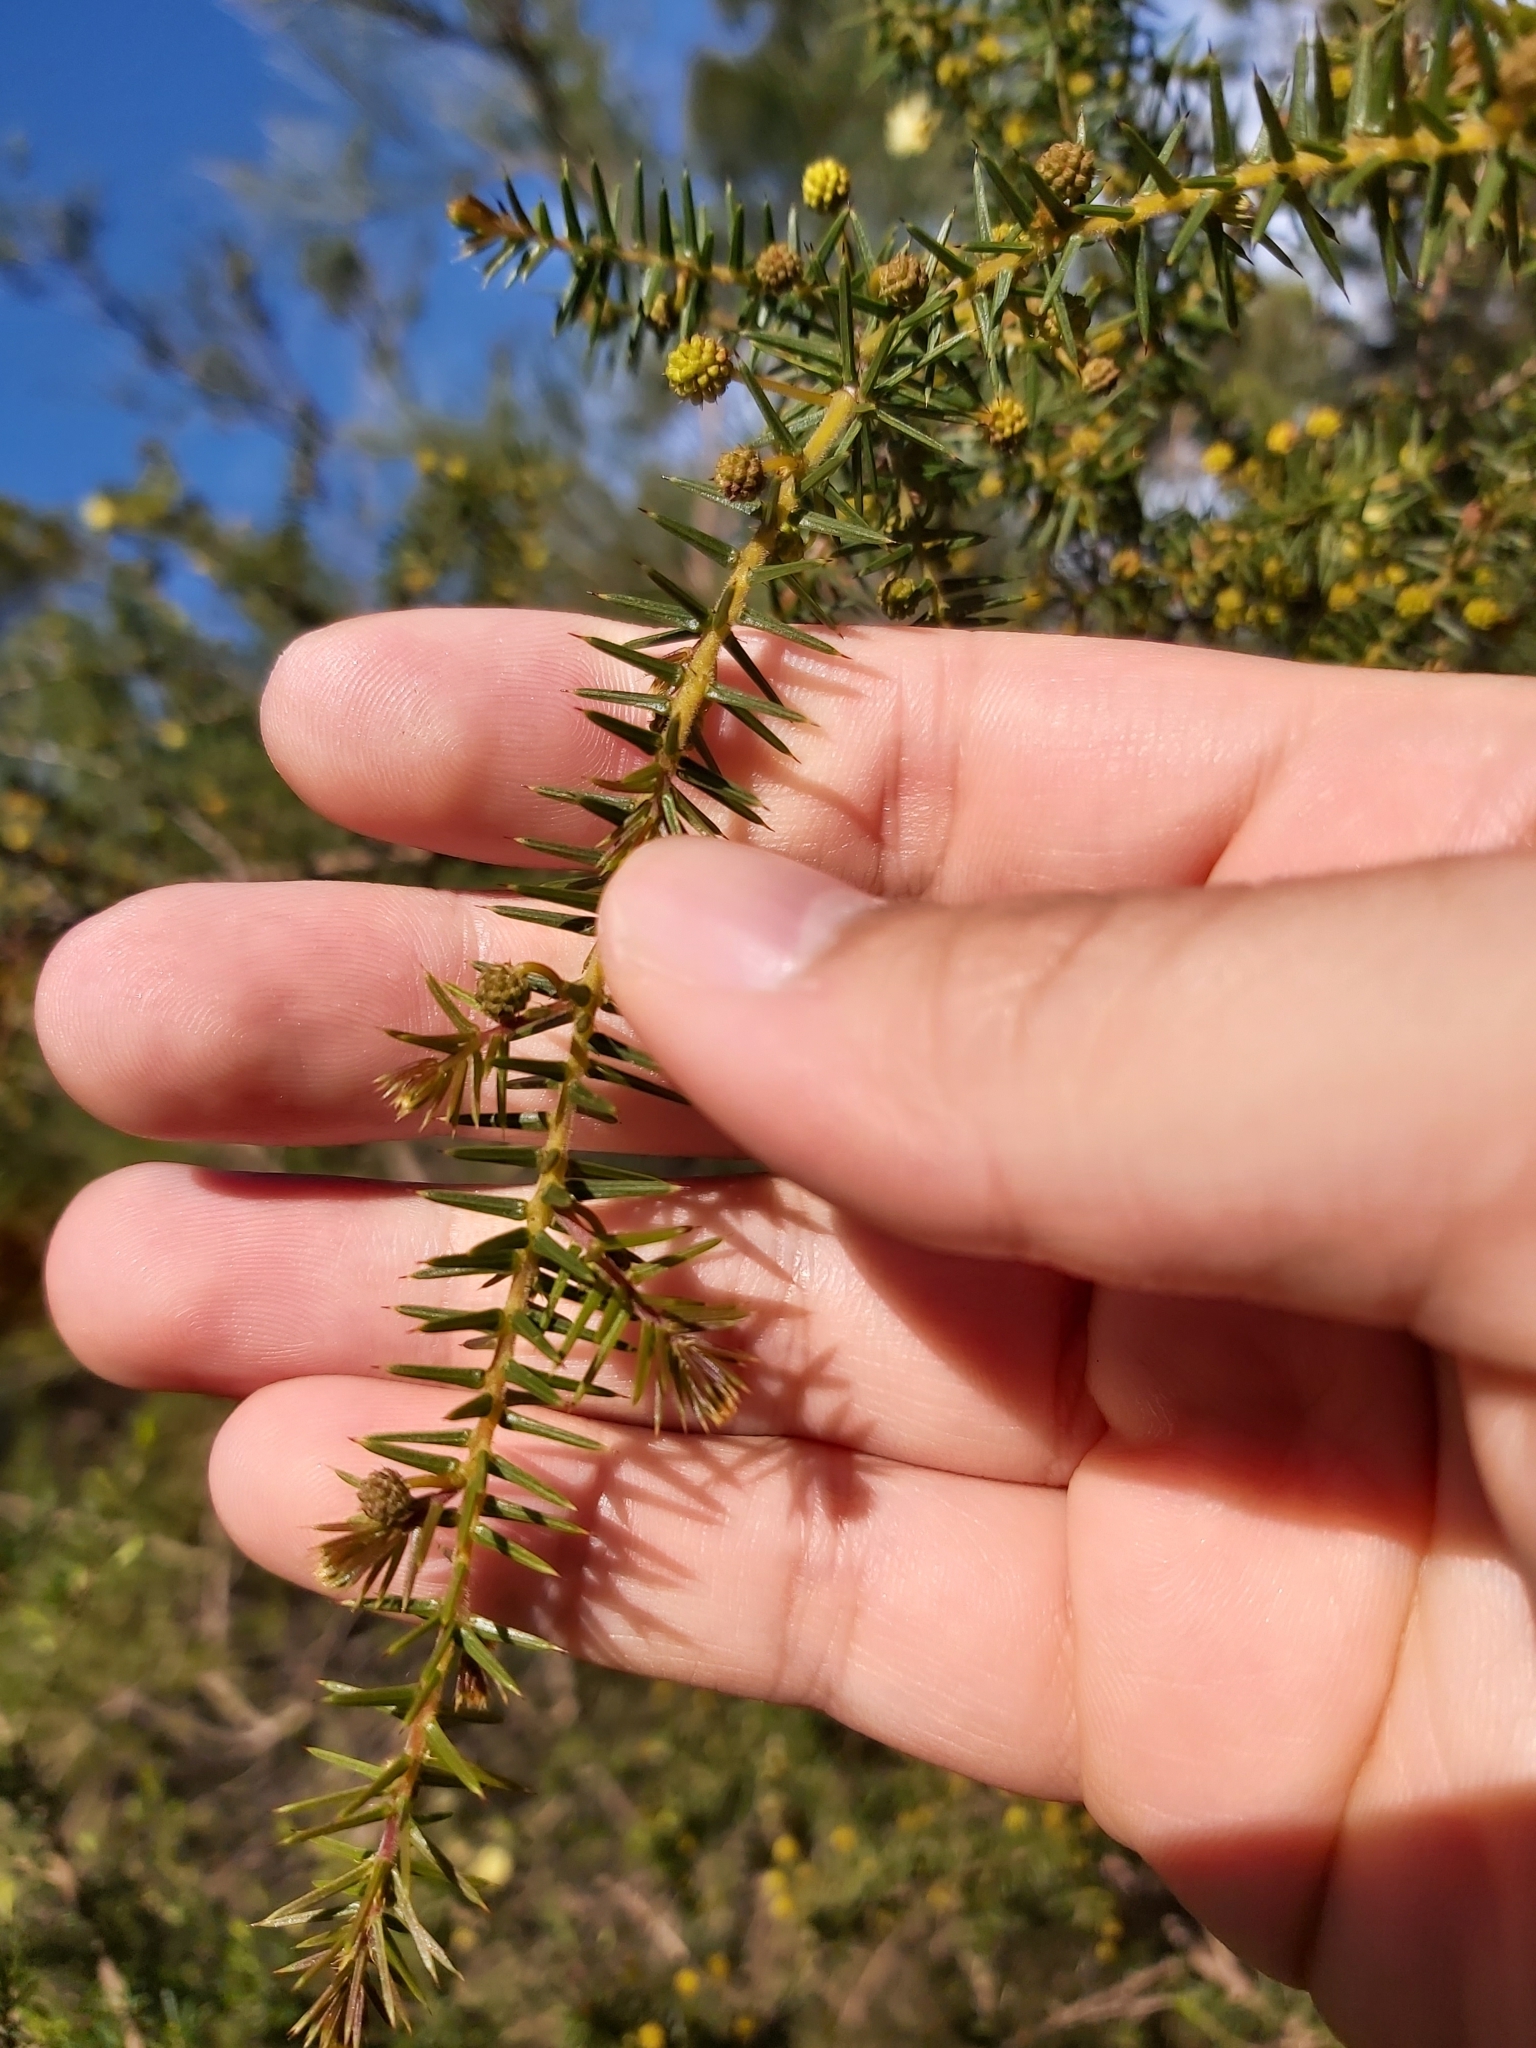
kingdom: Plantae
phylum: Tracheophyta
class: Magnoliopsida
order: Fabales
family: Fabaceae
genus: Acacia
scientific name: Acacia ulicifolia
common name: Juniper wattle
